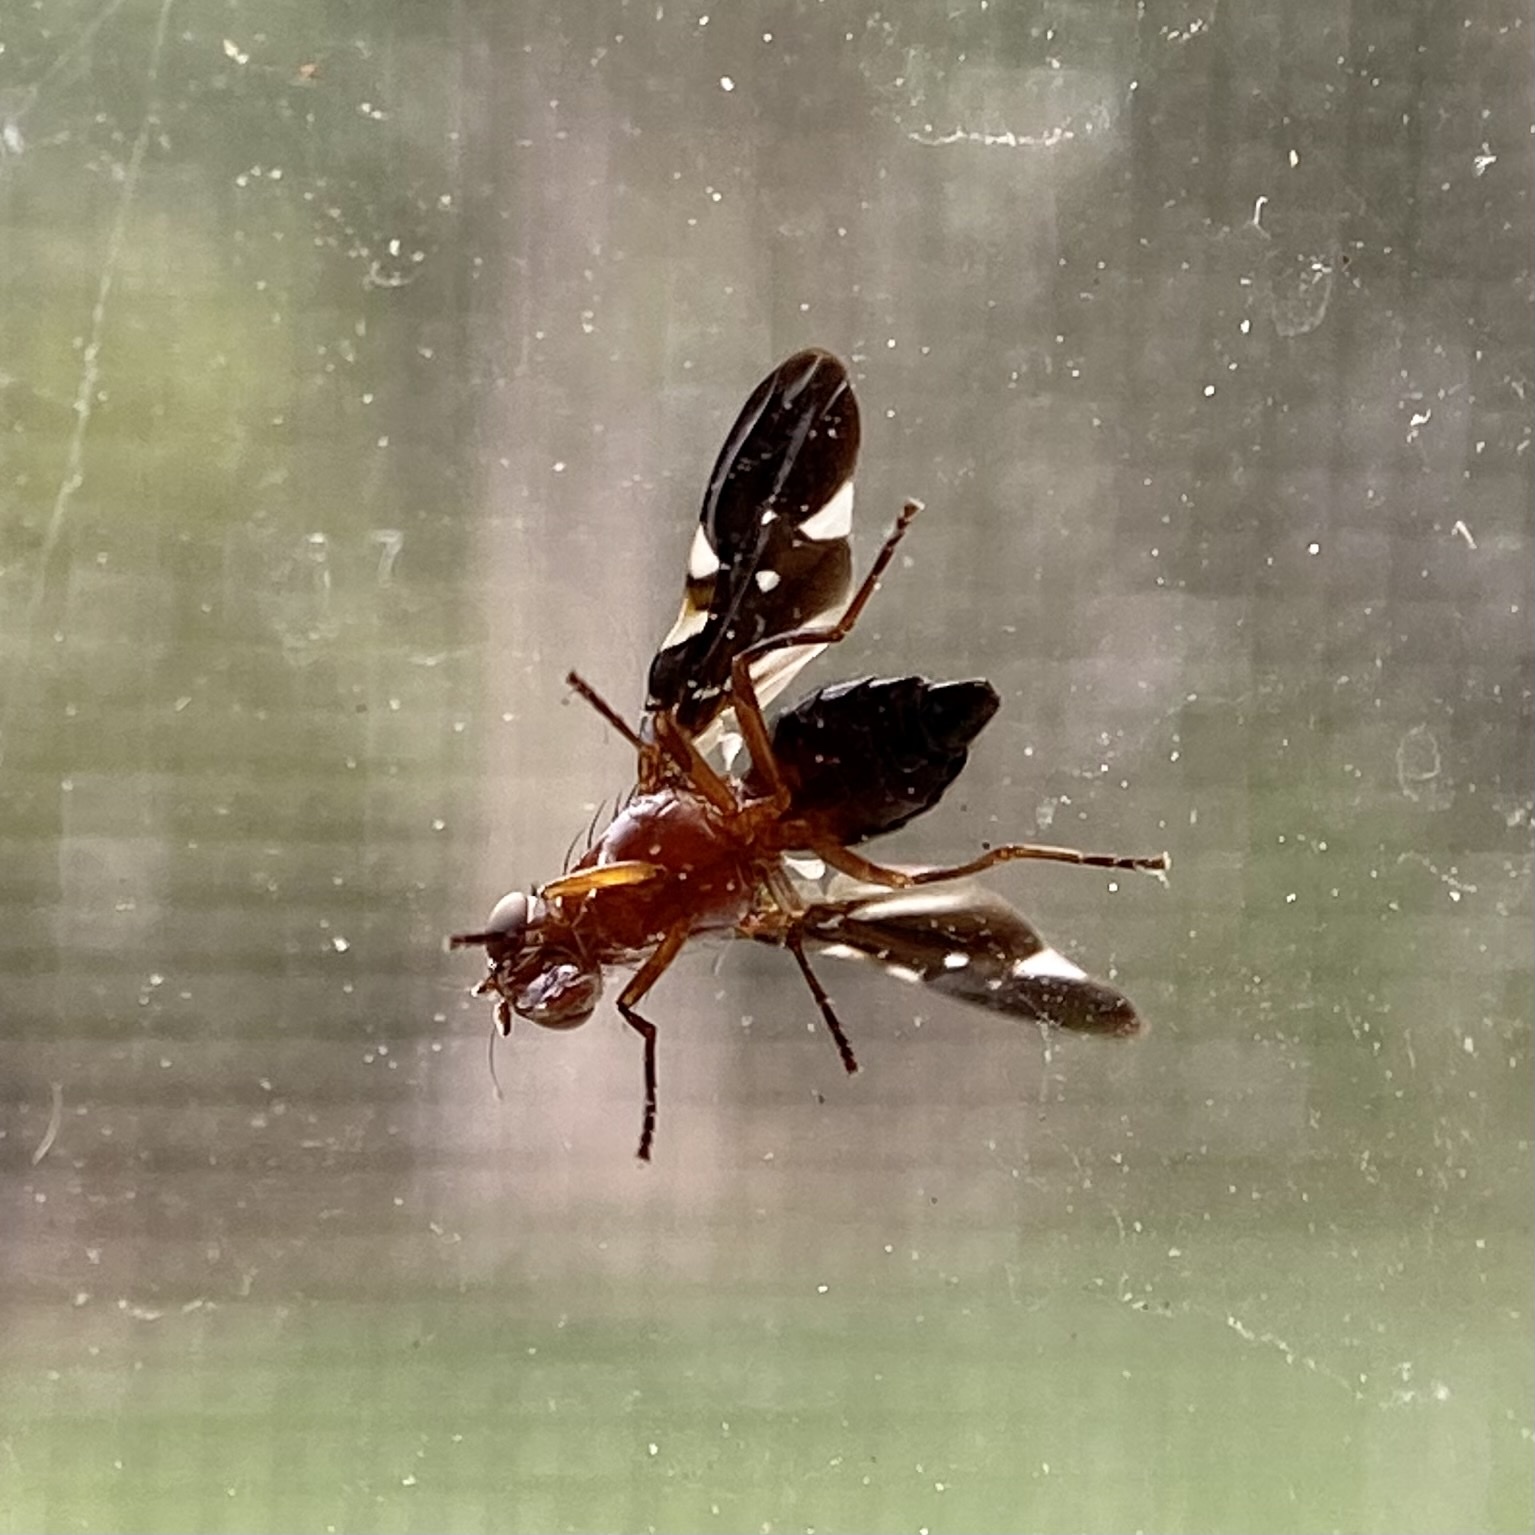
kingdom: Animalia
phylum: Arthropoda
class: Insecta
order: Diptera
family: Ulidiidae
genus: Delphinia
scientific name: Delphinia picta
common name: Common picture-winged fly
